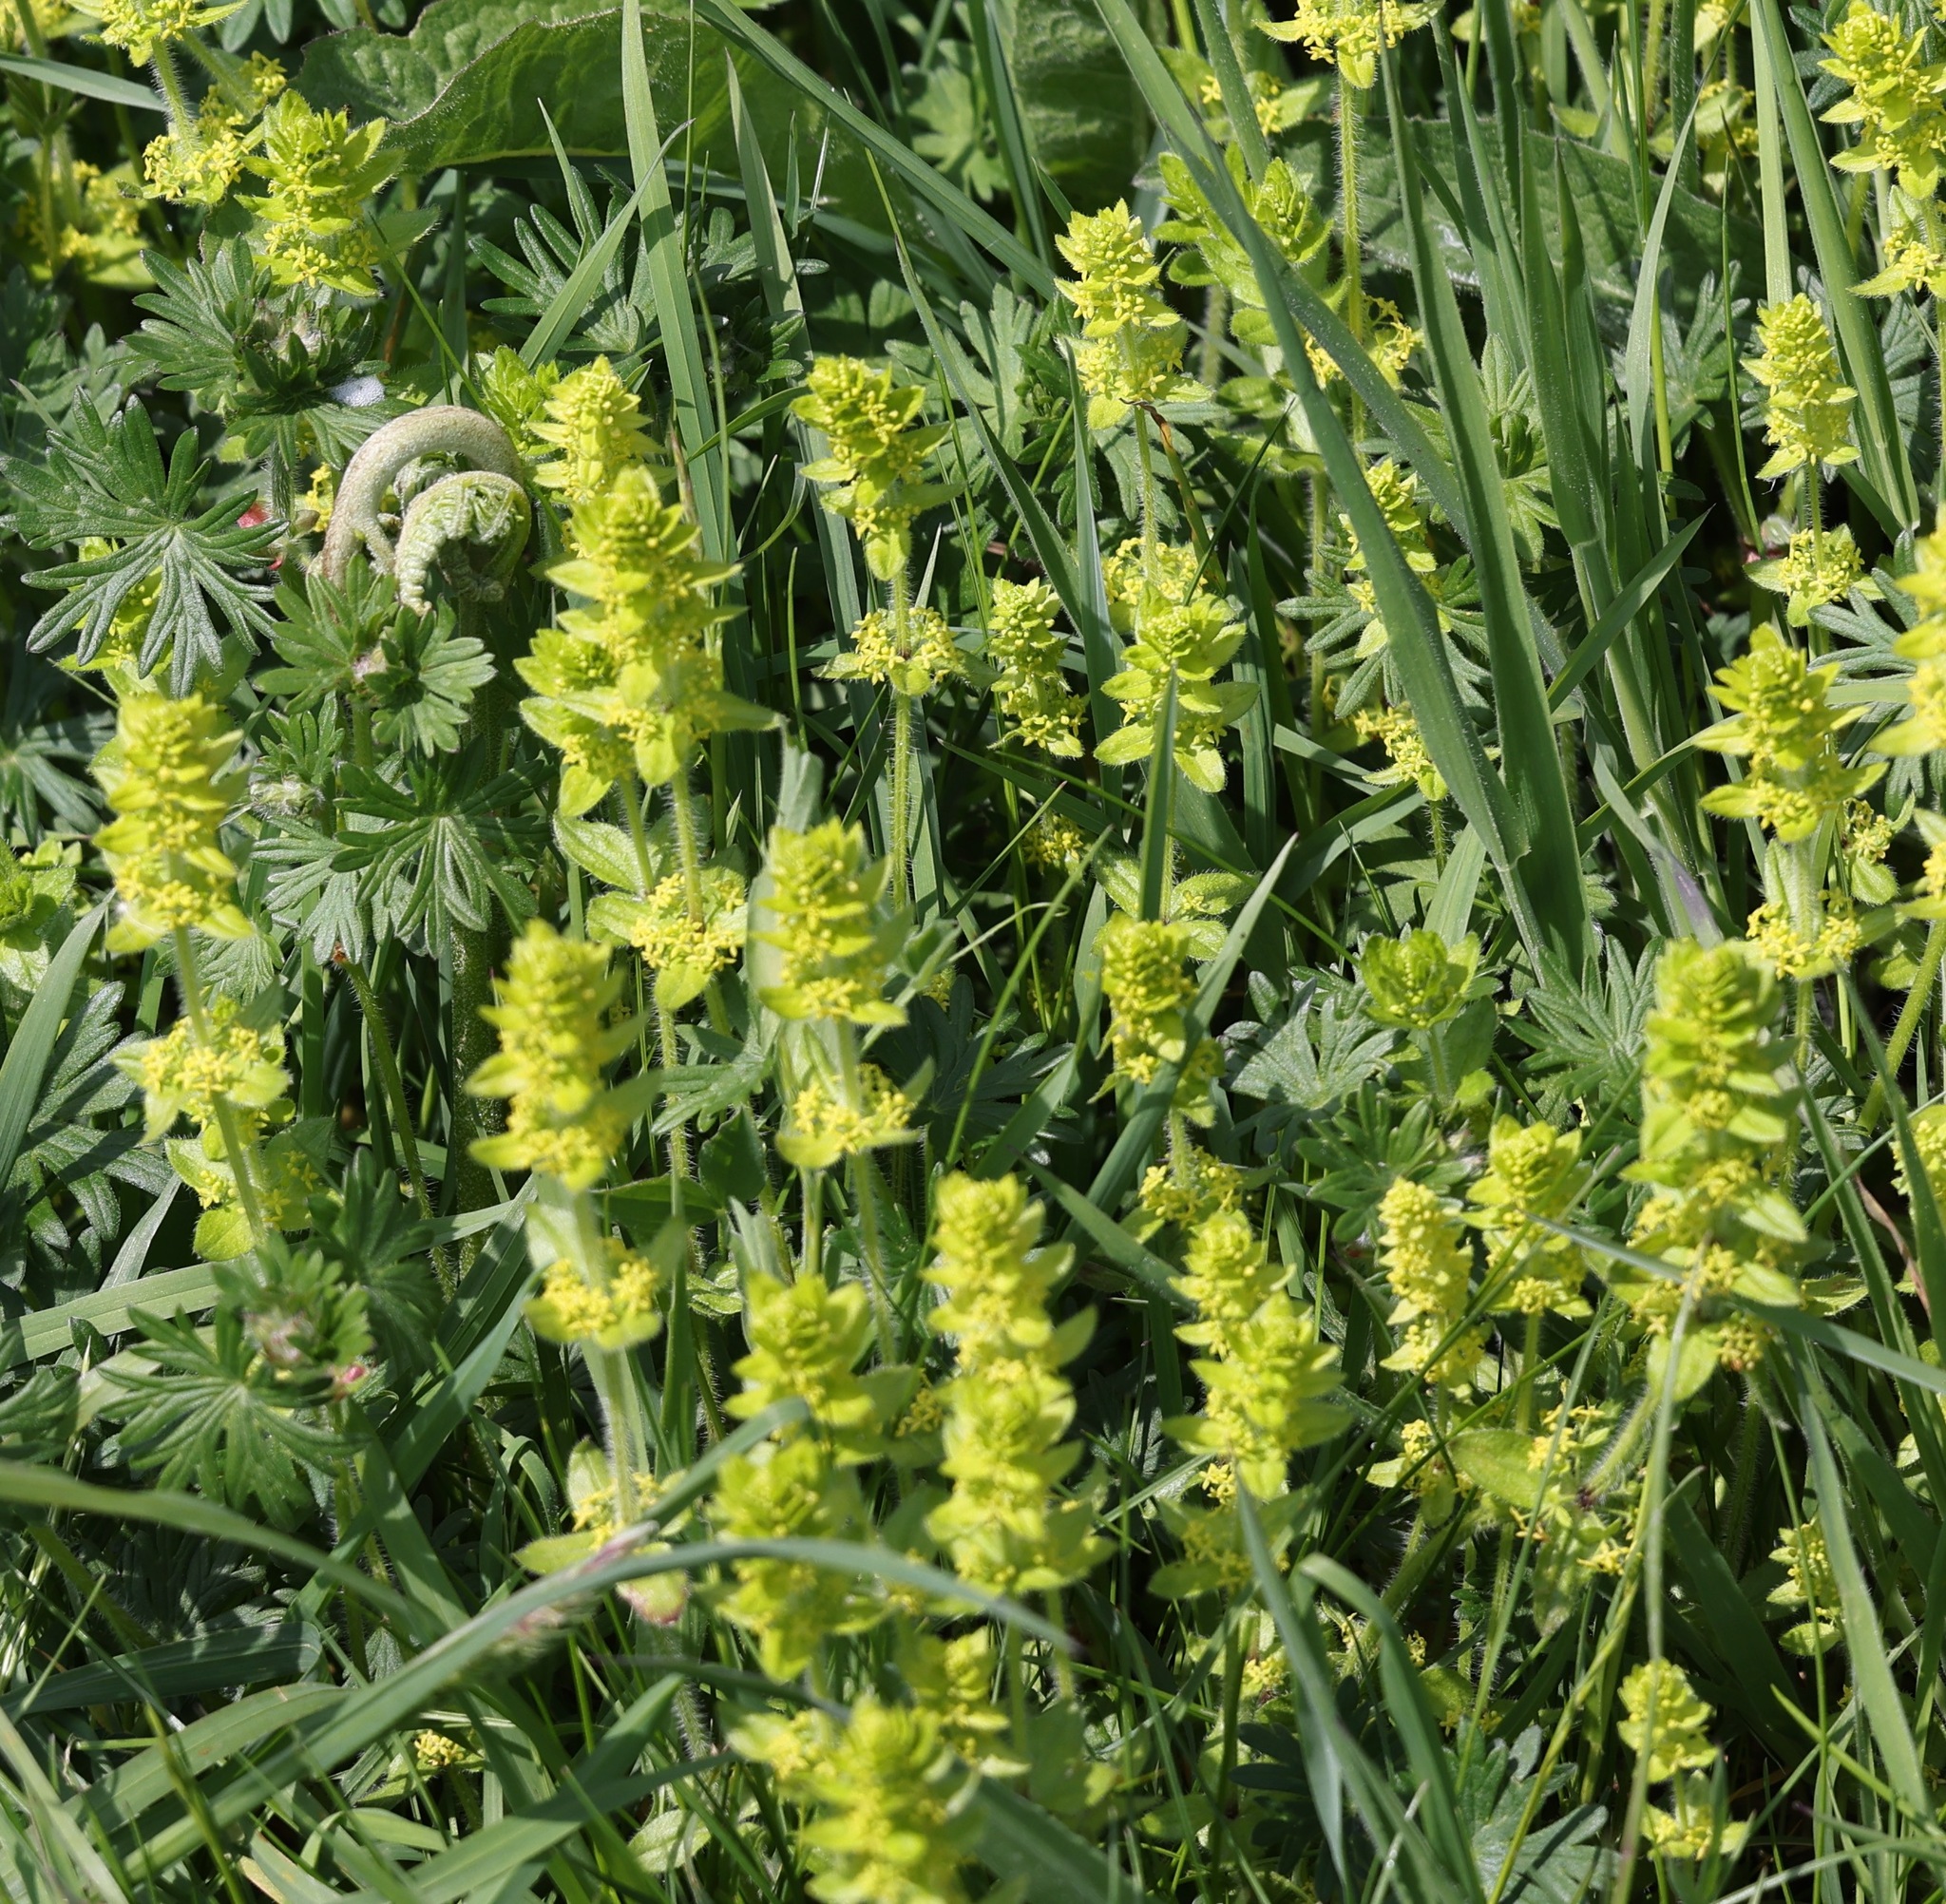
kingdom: Plantae
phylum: Tracheophyta
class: Magnoliopsida
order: Gentianales
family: Rubiaceae
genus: Cruciata
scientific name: Cruciata laevipes
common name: Crosswort
